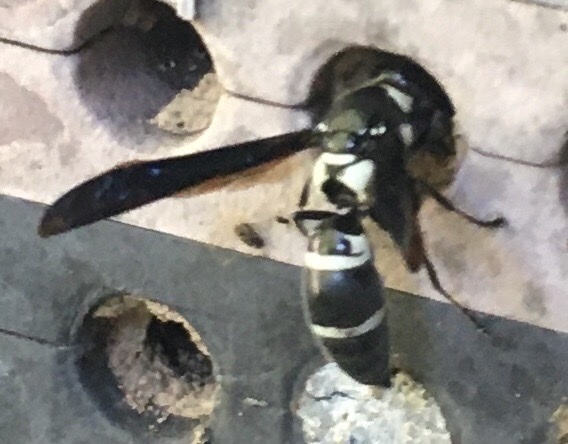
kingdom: Animalia
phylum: Arthropoda
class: Insecta
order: Hymenoptera
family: Eumenidae
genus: Pseudodynerus
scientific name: Pseudodynerus quadrisectus
